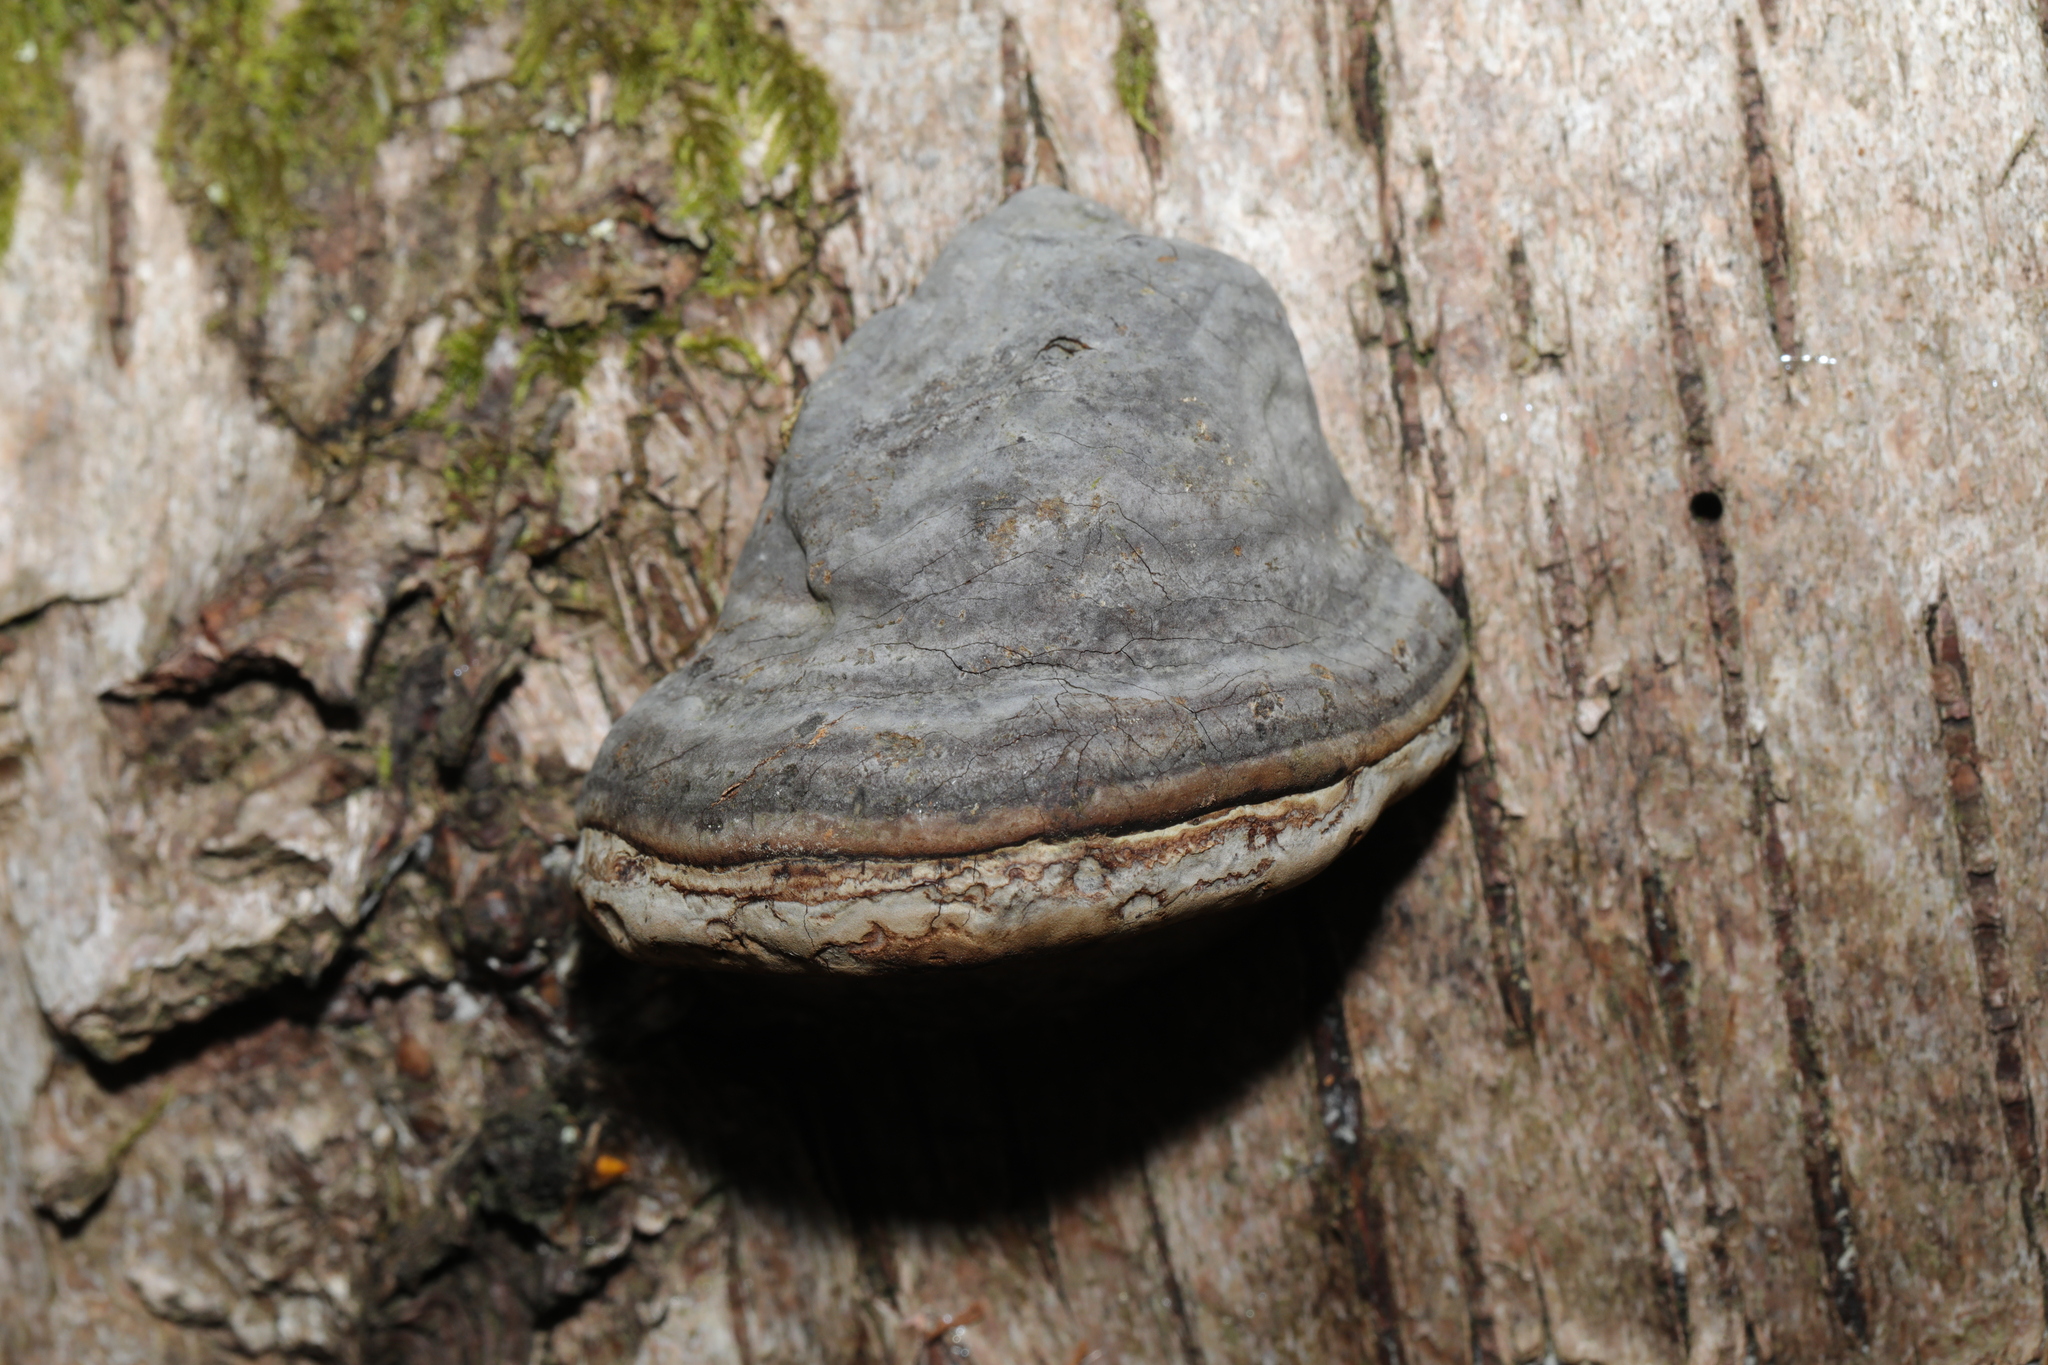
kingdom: Fungi
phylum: Basidiomycota
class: Agaricomycetes
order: Polyporales
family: Polyporaceae
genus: Fomes
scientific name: Fomes fomentarius
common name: Hoof fungus
